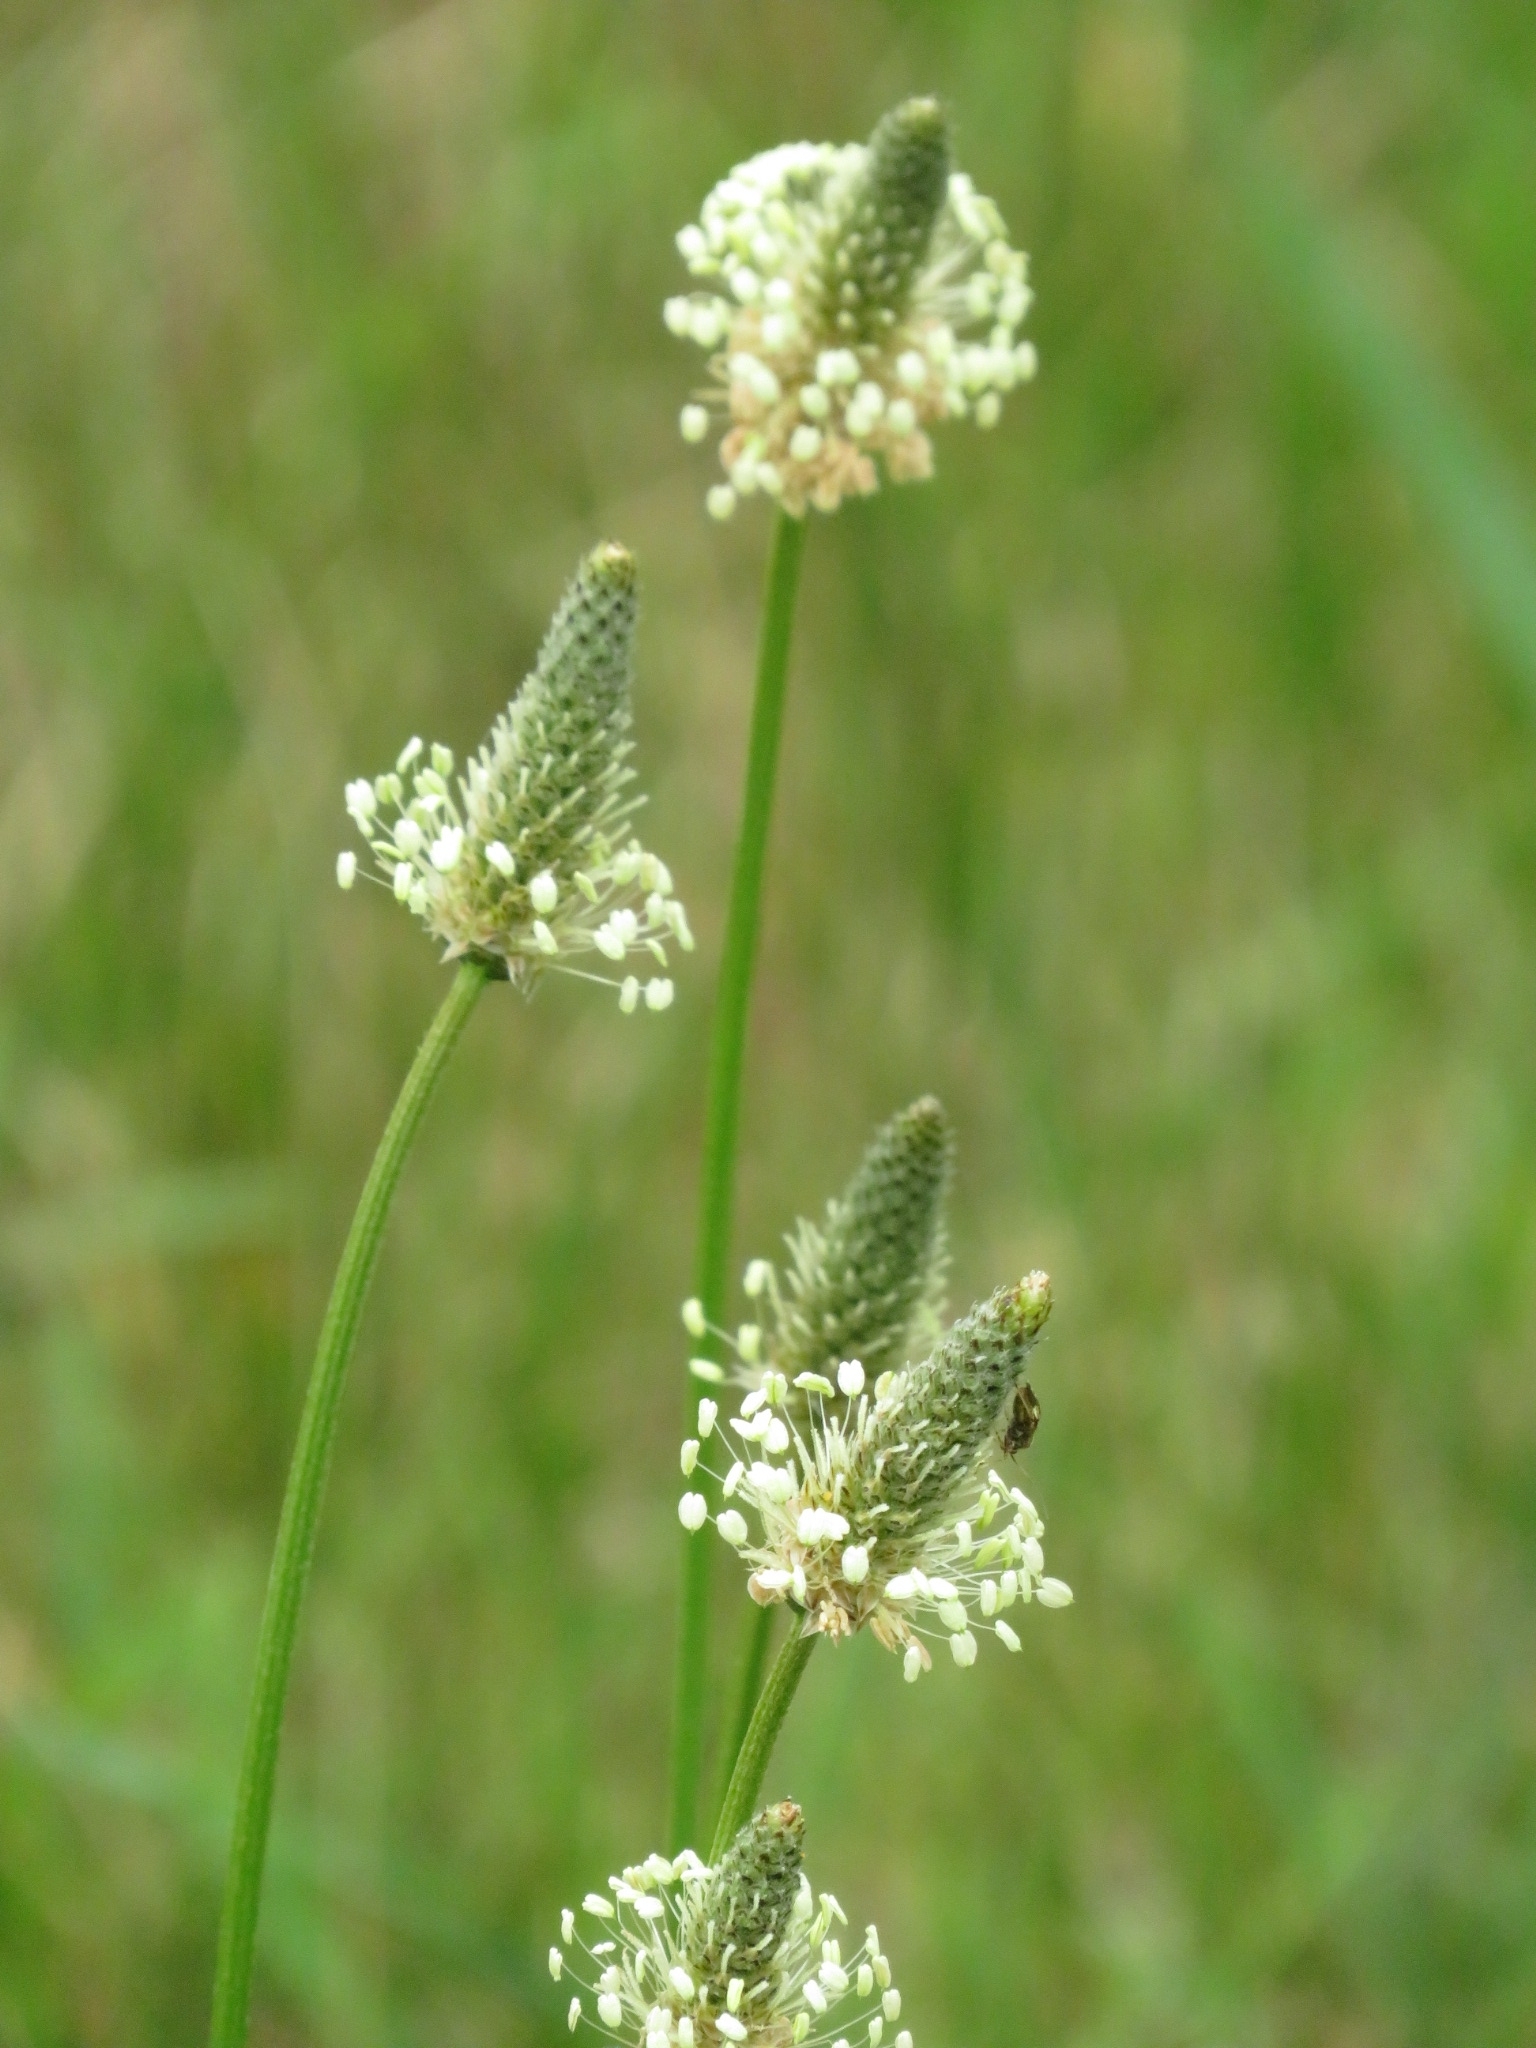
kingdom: Plantae
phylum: Tracheophyta
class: Magnoliopsida
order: Lamiales
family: Plantaginaceae
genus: Plantago
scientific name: Plantago lanceolata
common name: Ribwort plantain
